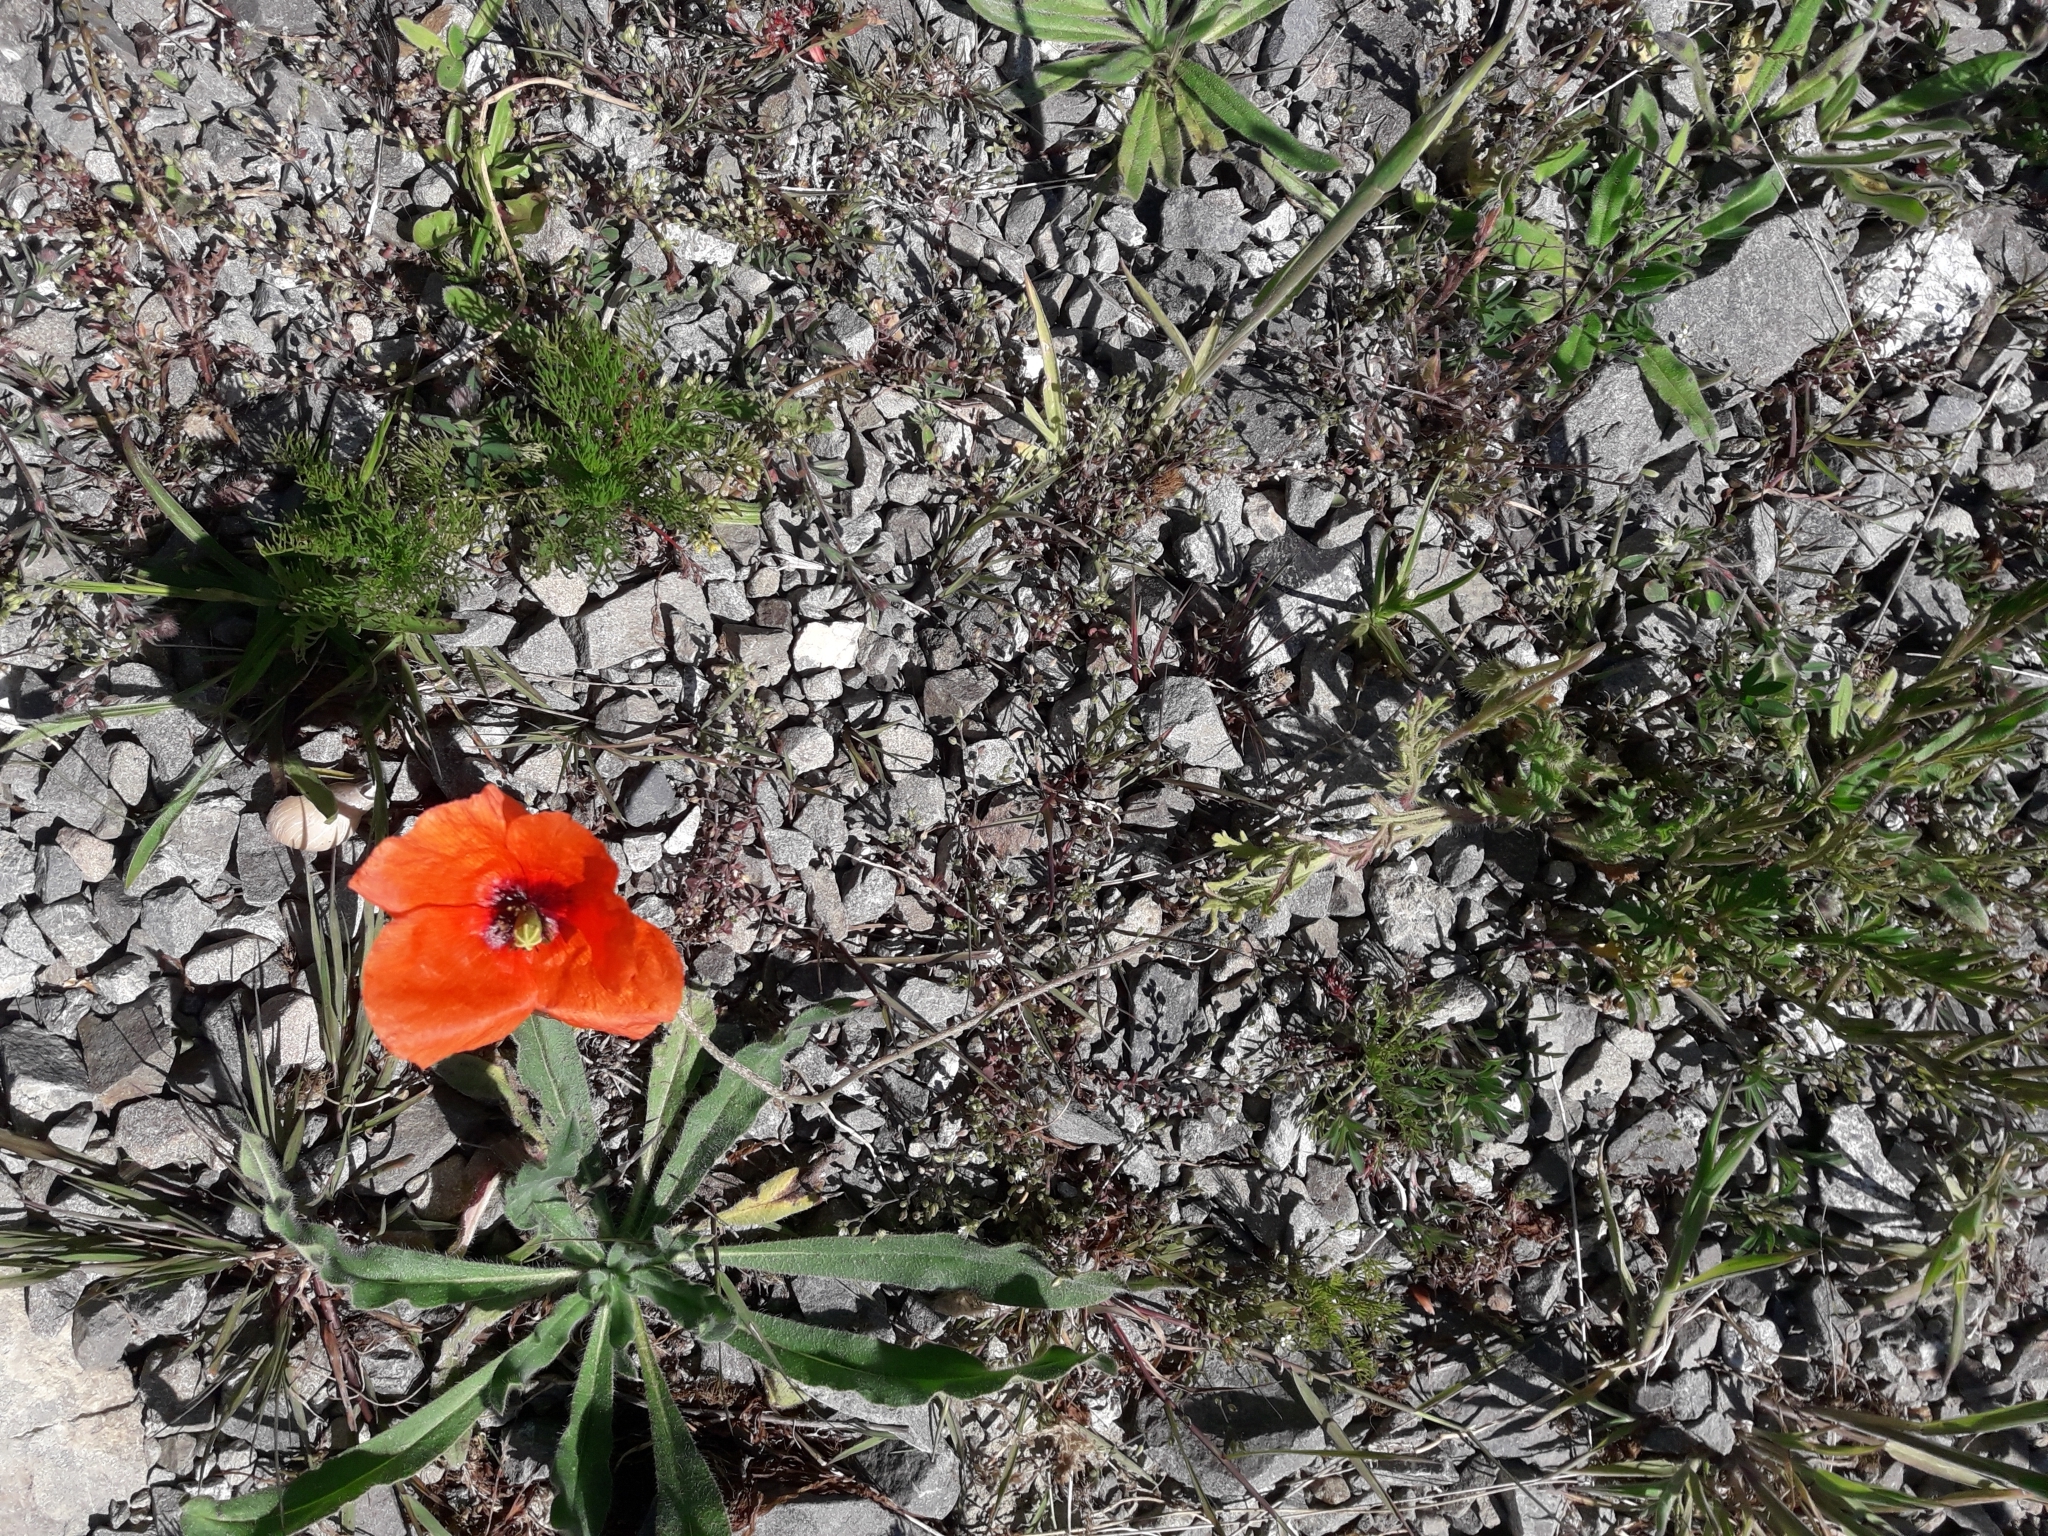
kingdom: Plantae
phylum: Tracheophyta
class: Magnoliopsida
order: Ranunculales
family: Papaveraceae
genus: Papaver
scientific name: Papaver dubium
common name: Long-headed poppy
